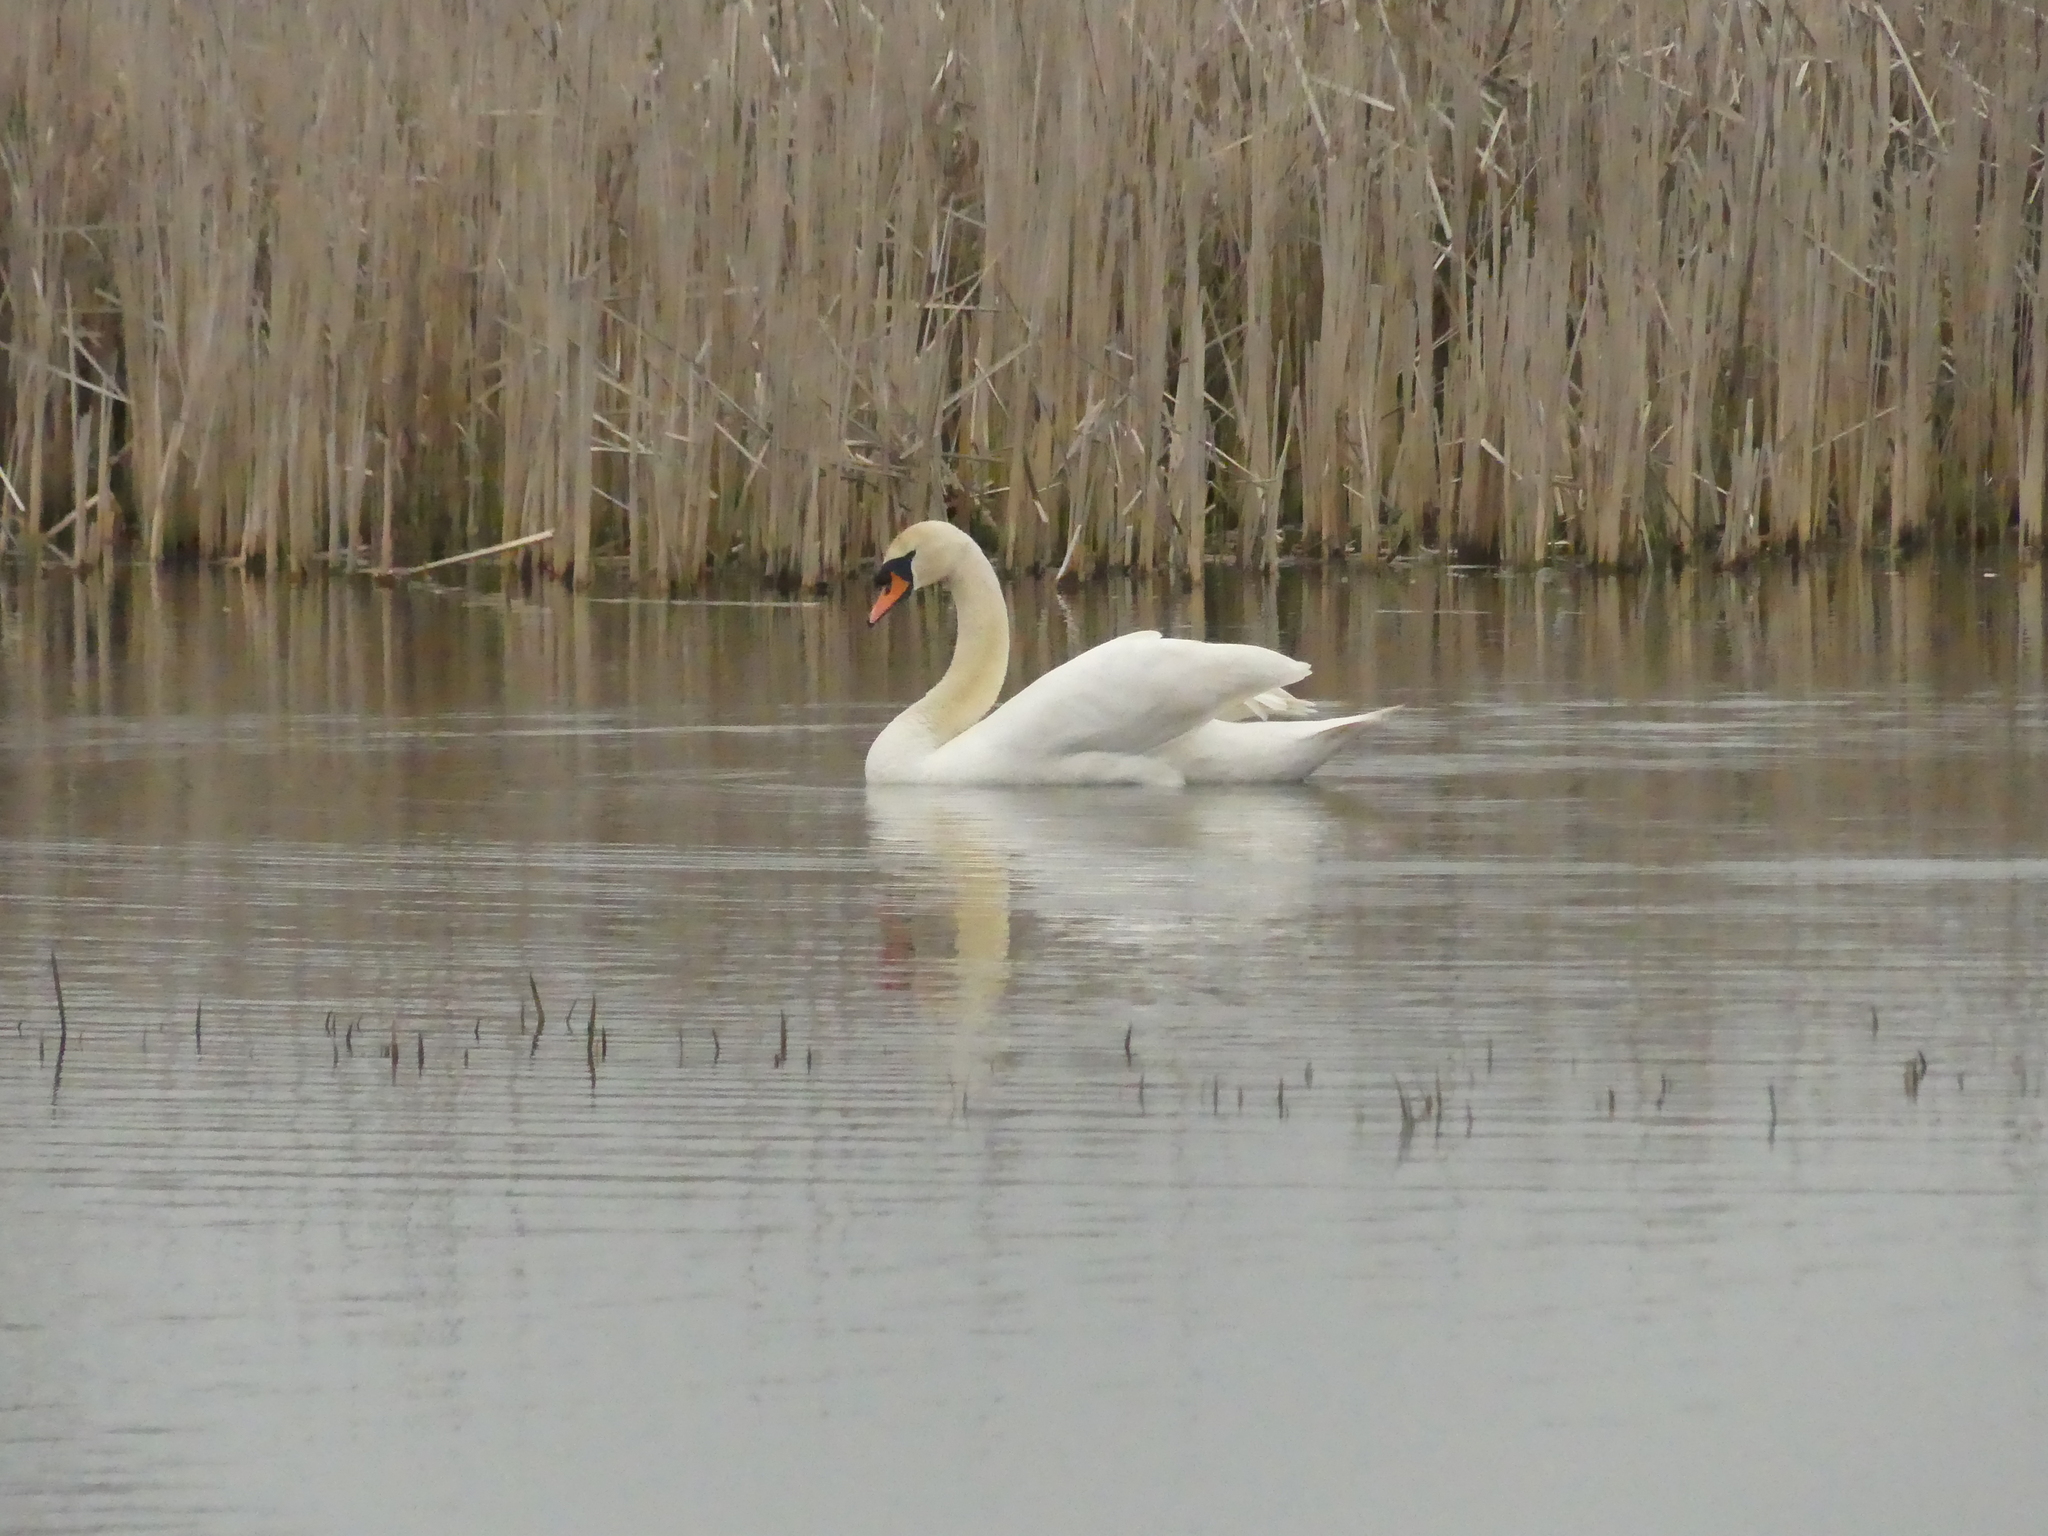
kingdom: Animalia
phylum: Chordata
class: Aves
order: Anseriformes
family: Anatidae
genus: Cygnus
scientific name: Cygnus olor
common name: Mute swan
